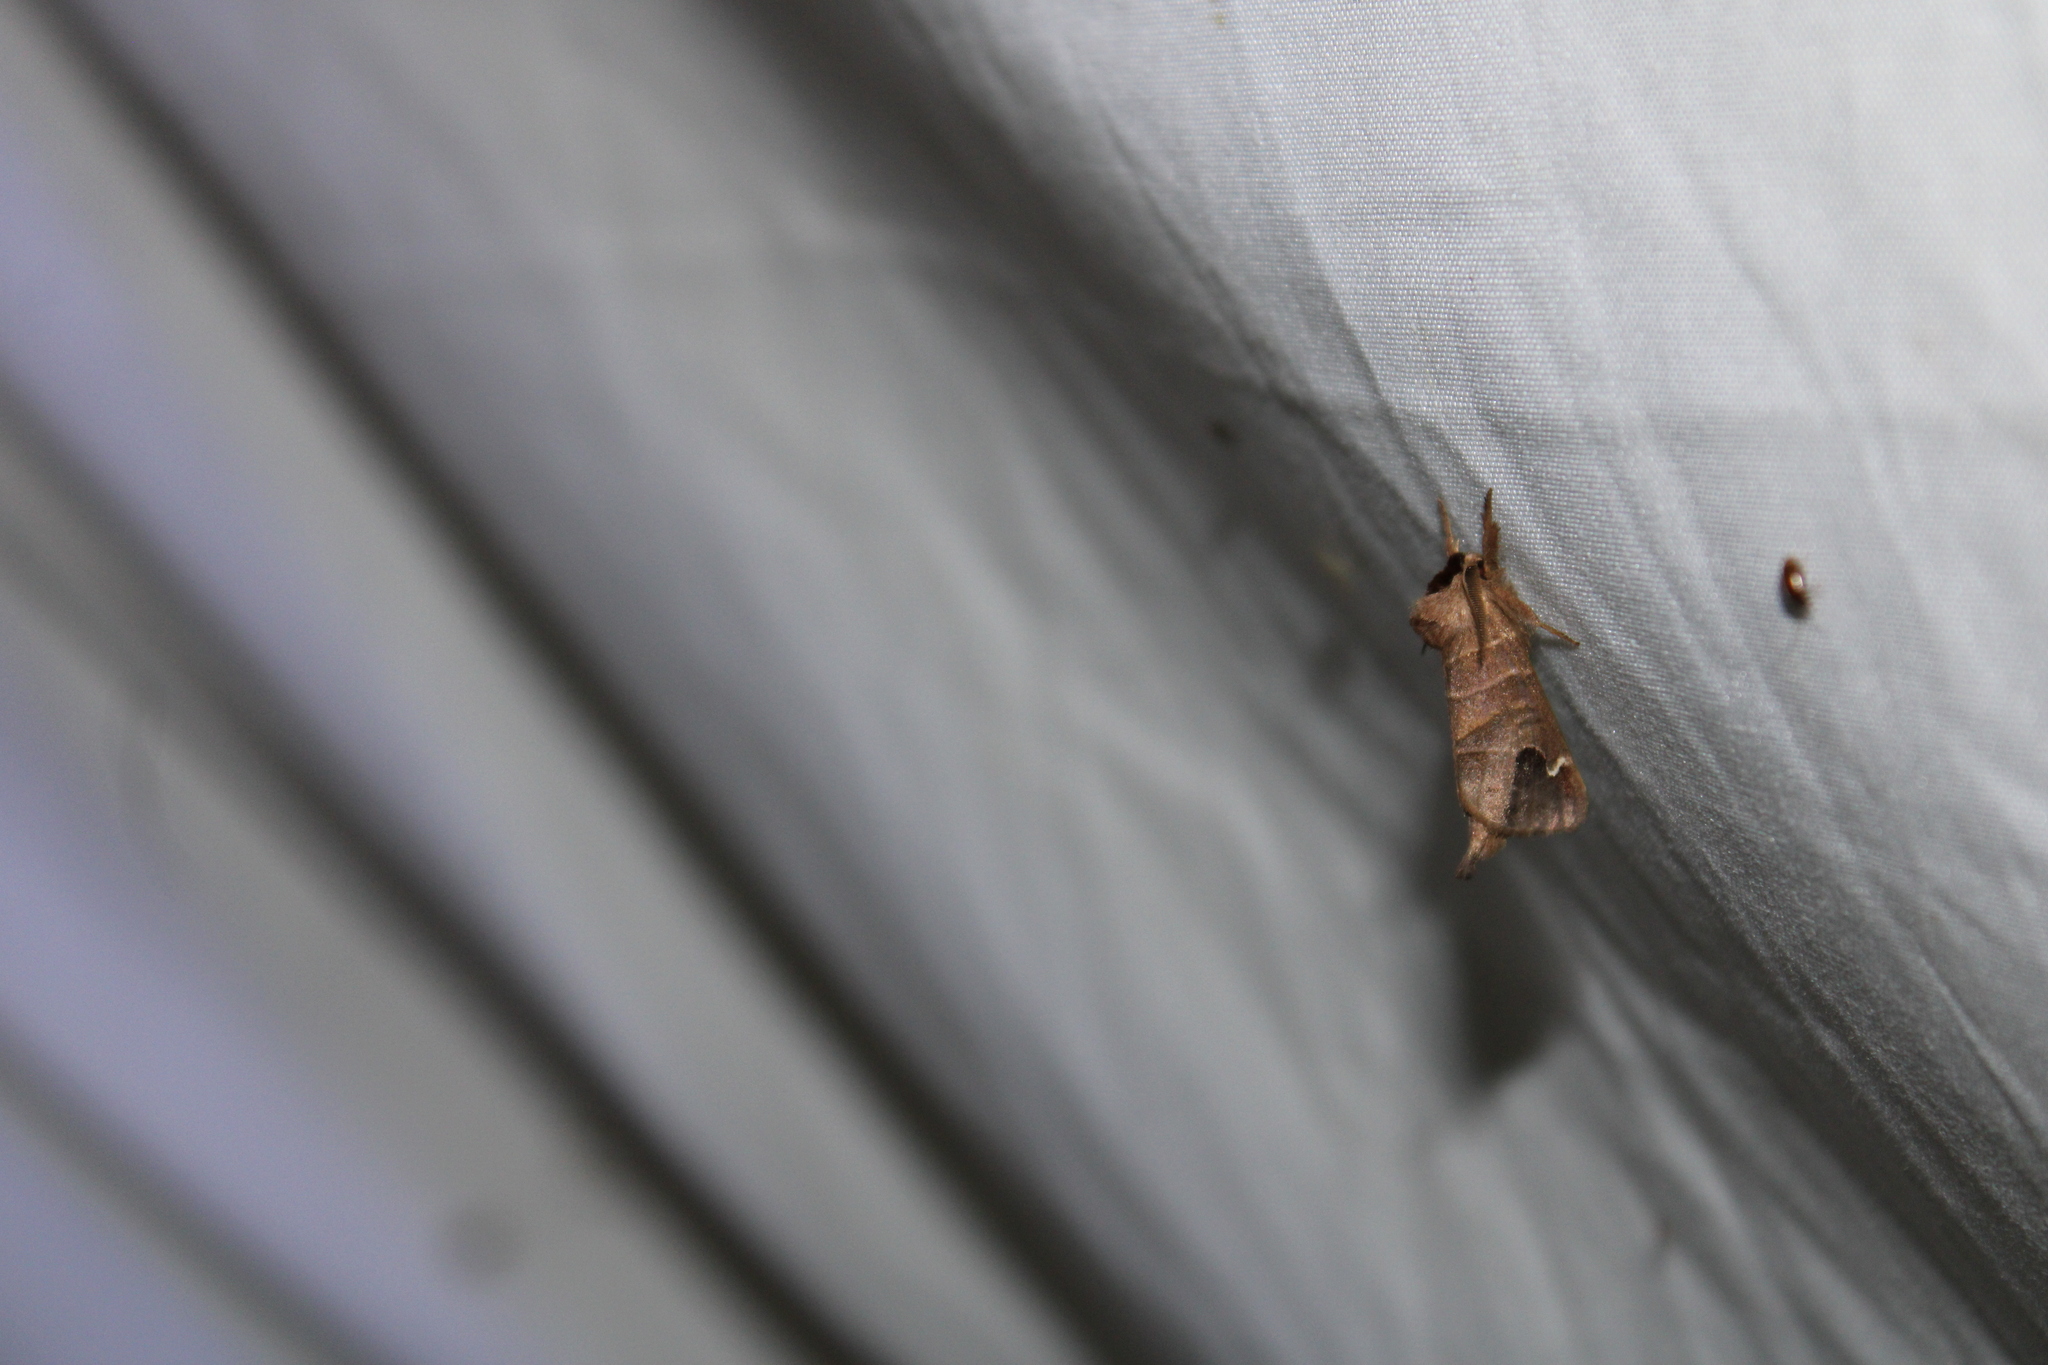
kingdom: Animalia
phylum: Arthropoda
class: Insecta
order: Lepidoptera
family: Notodontidae
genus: Clostera
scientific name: Clostera albosigma
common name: Sigmoid prominent
